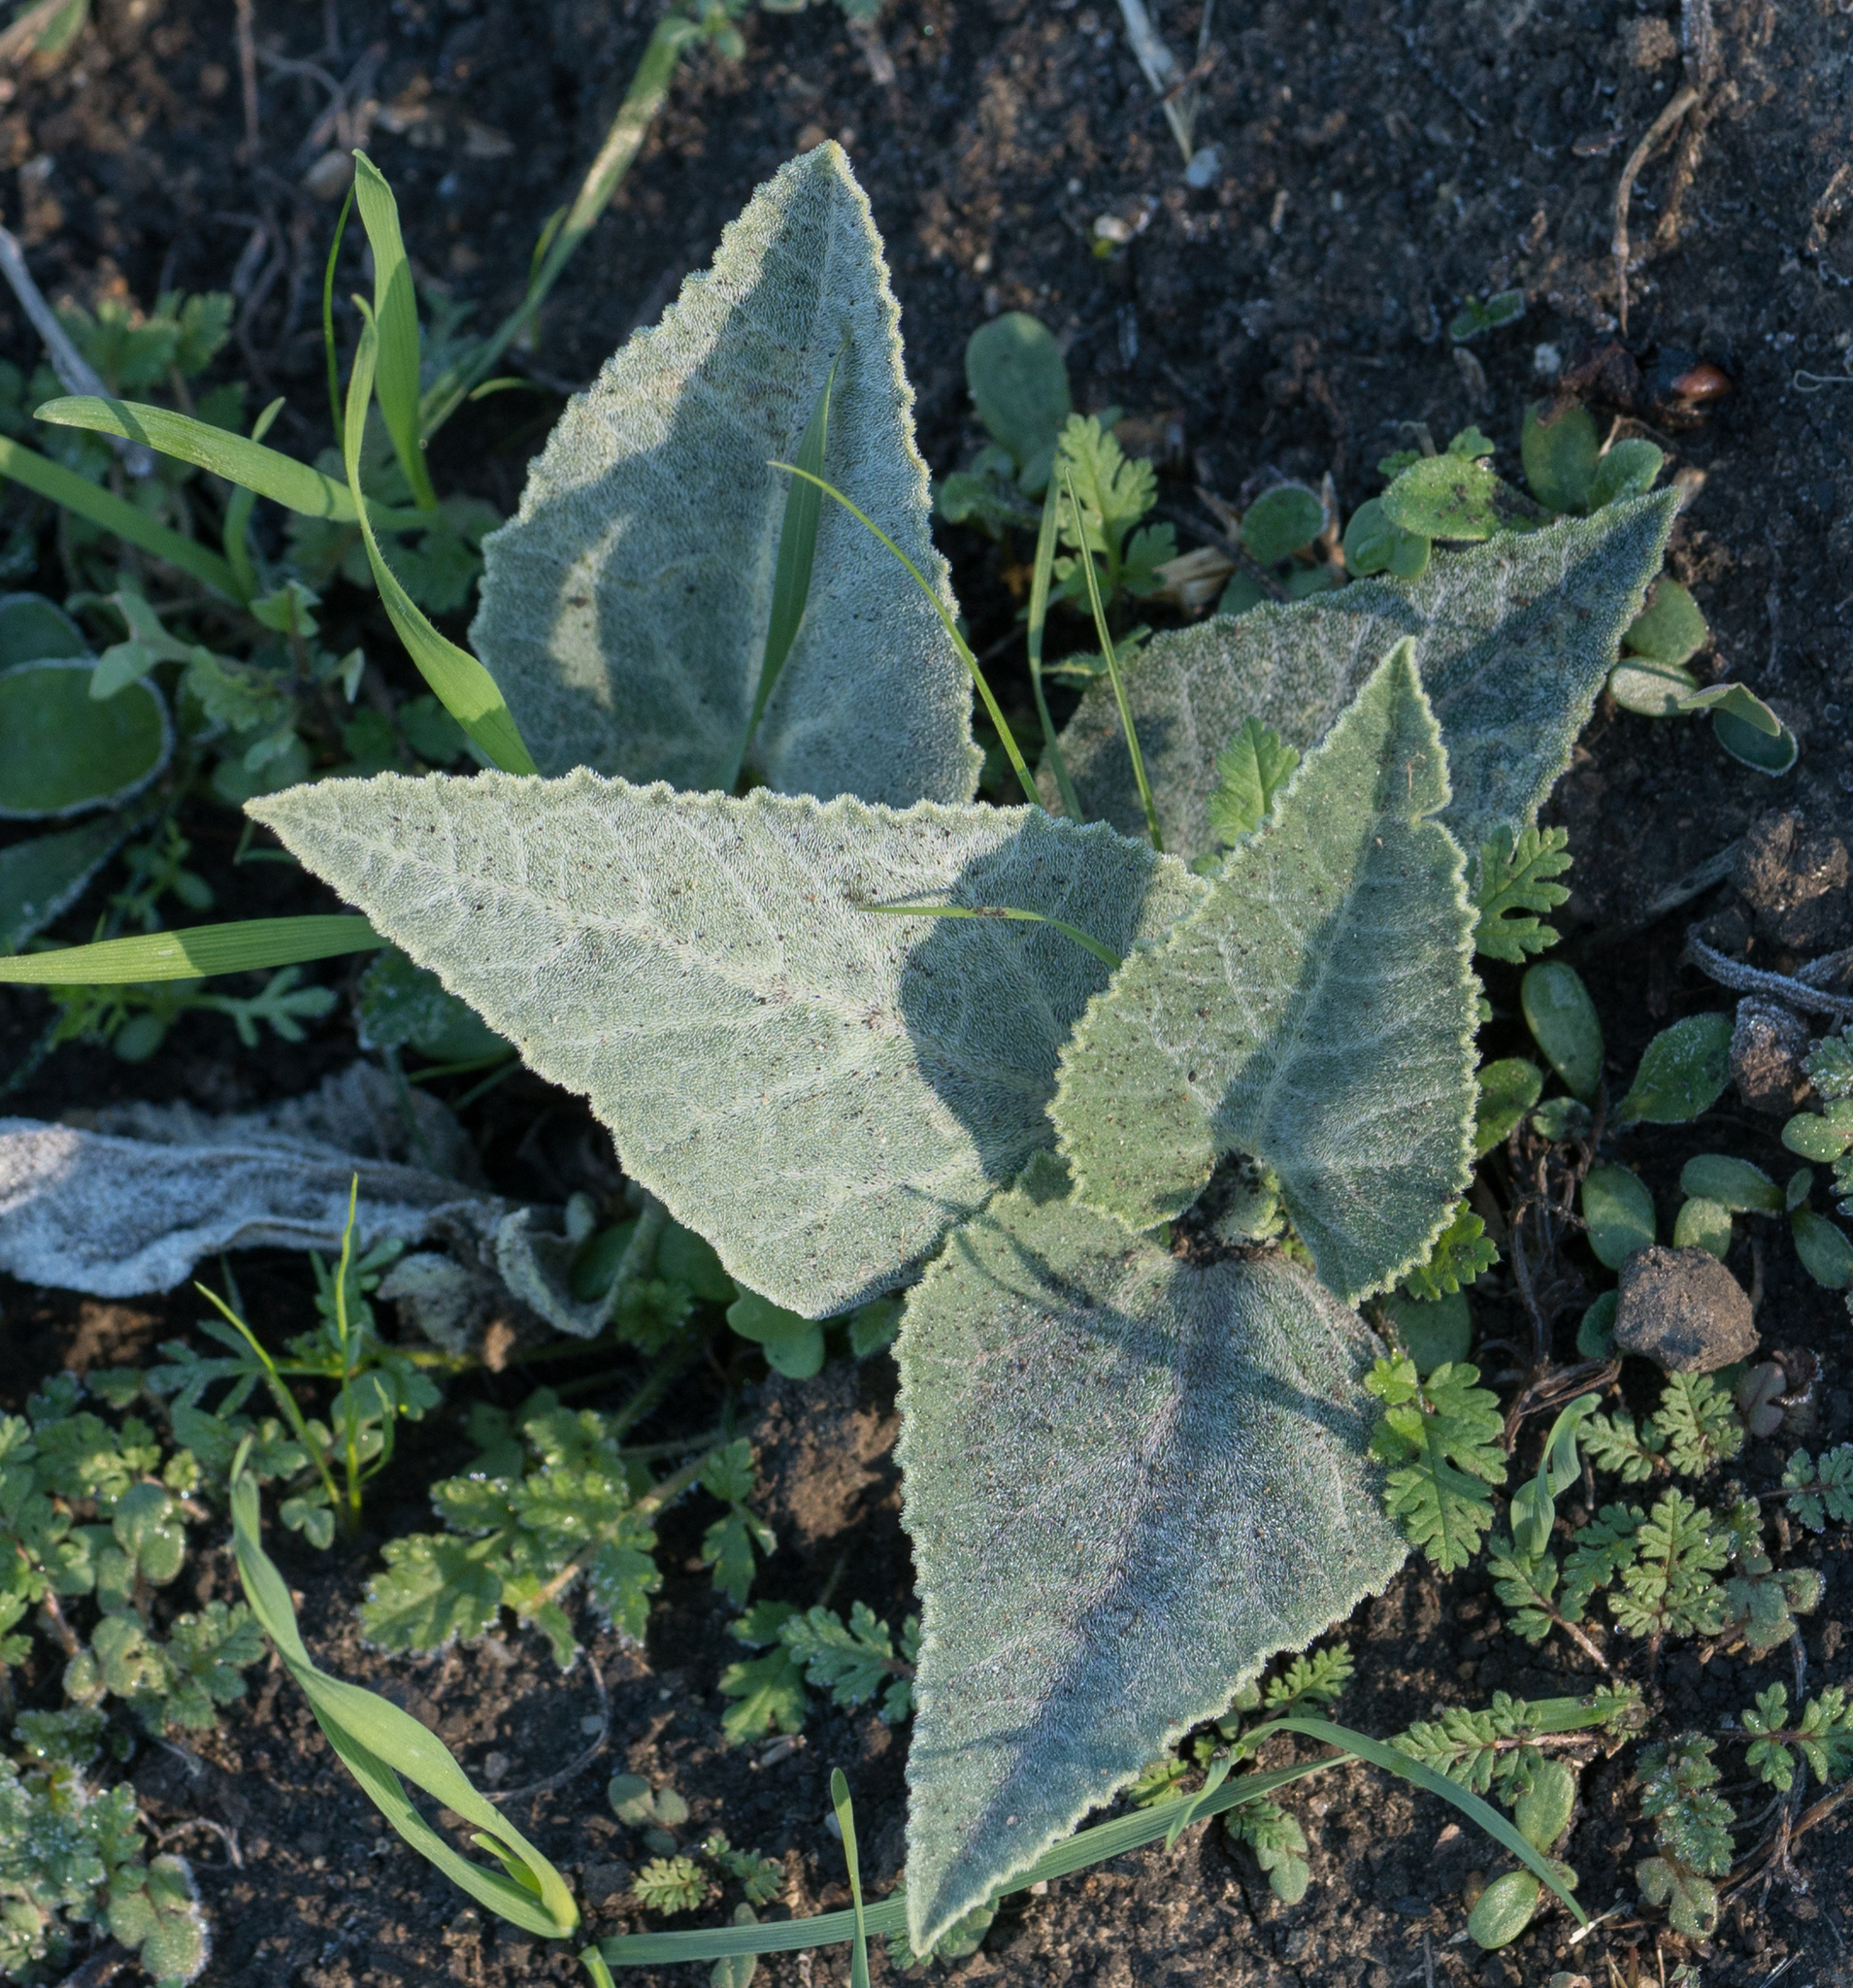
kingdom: Plantae
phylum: Tracheophyta
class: Magnoliopsida
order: Cucurbitales
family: Cucurbitaceae
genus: Cucurbita
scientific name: Cucurbita foetidissima
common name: Buffalo gourd
